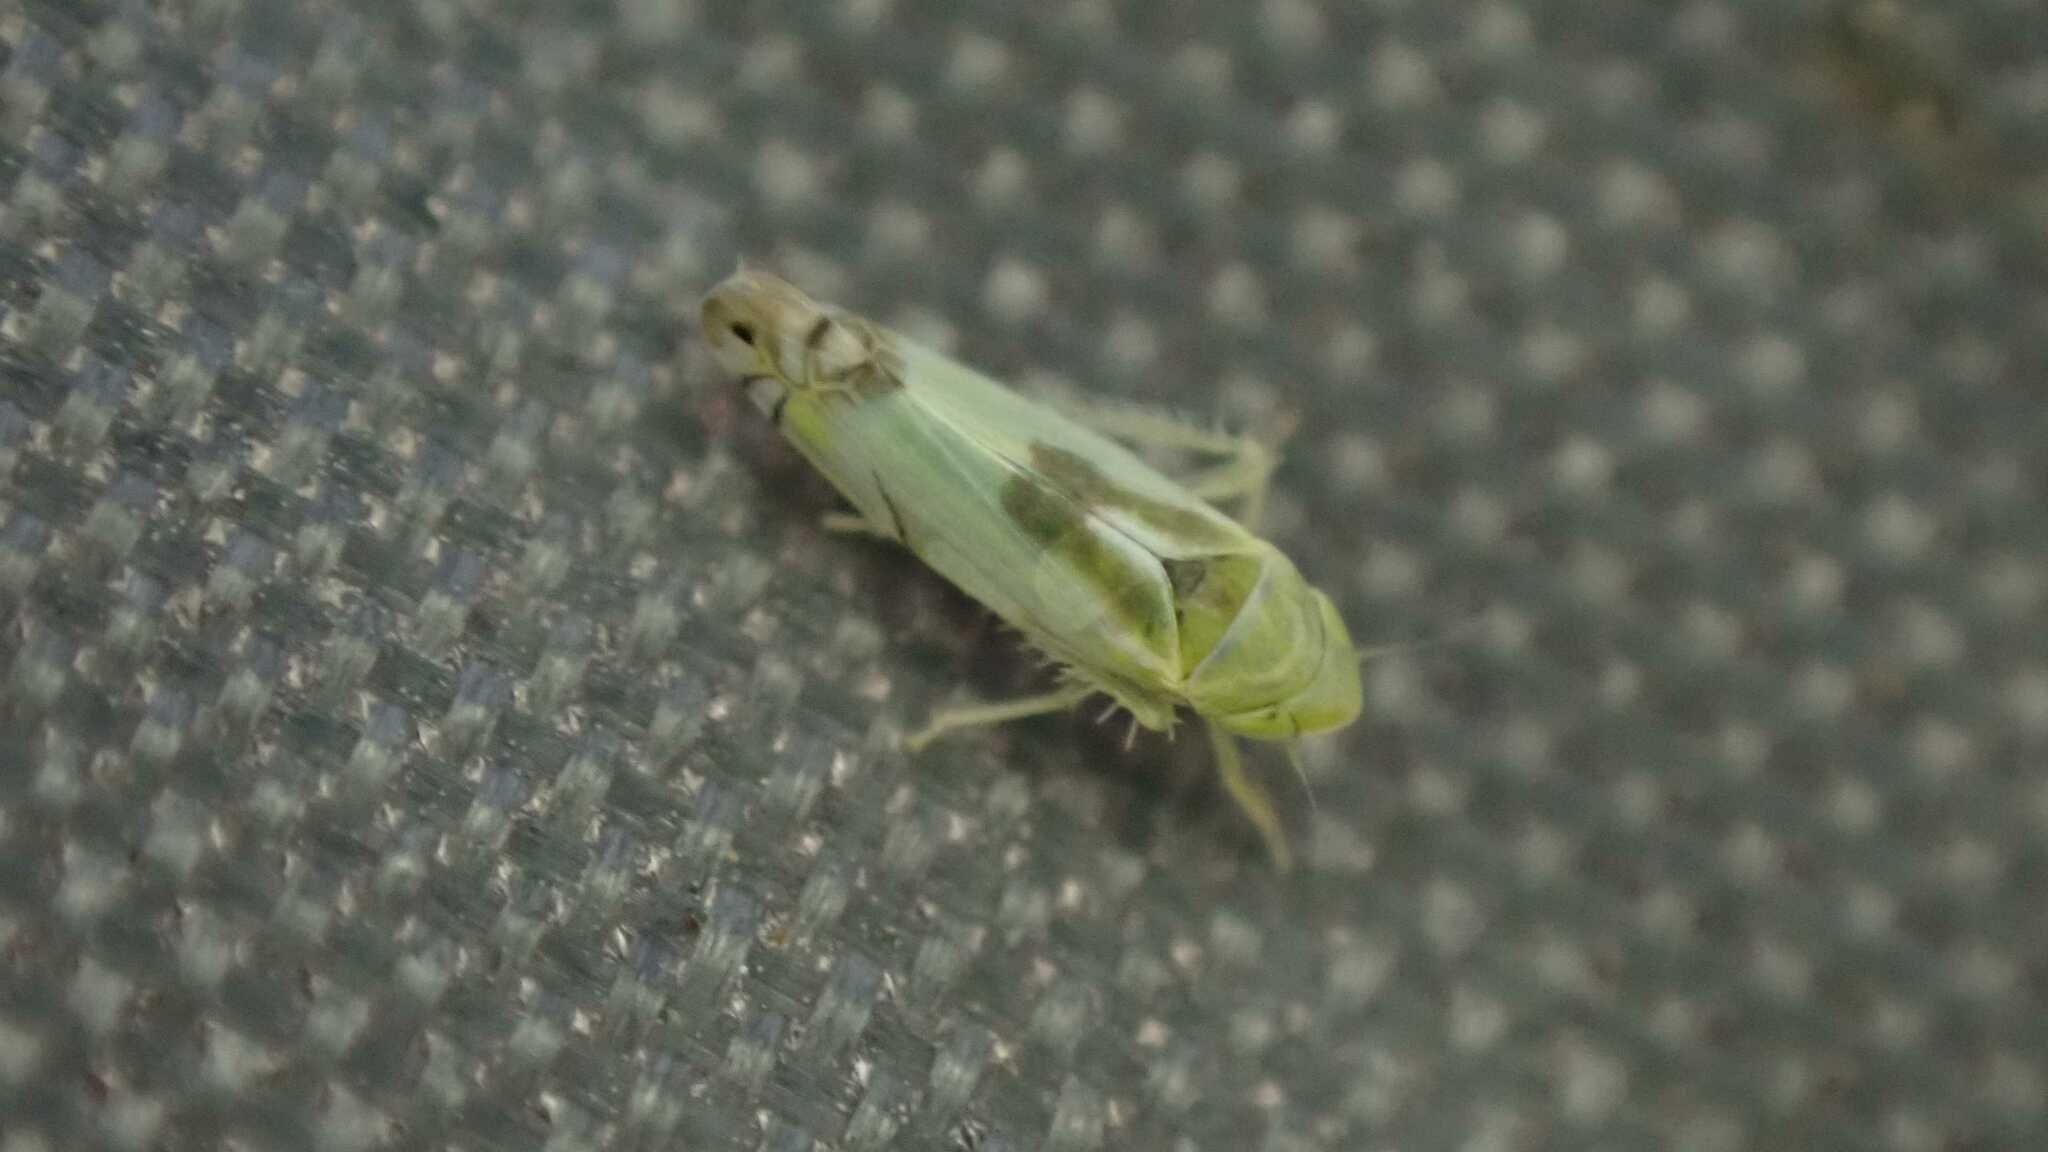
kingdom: Animalia
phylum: Arthropoda
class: Insecta
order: Hemiptera
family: Cicadellidae
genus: Zyginella
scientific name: Zyginella pulchra
